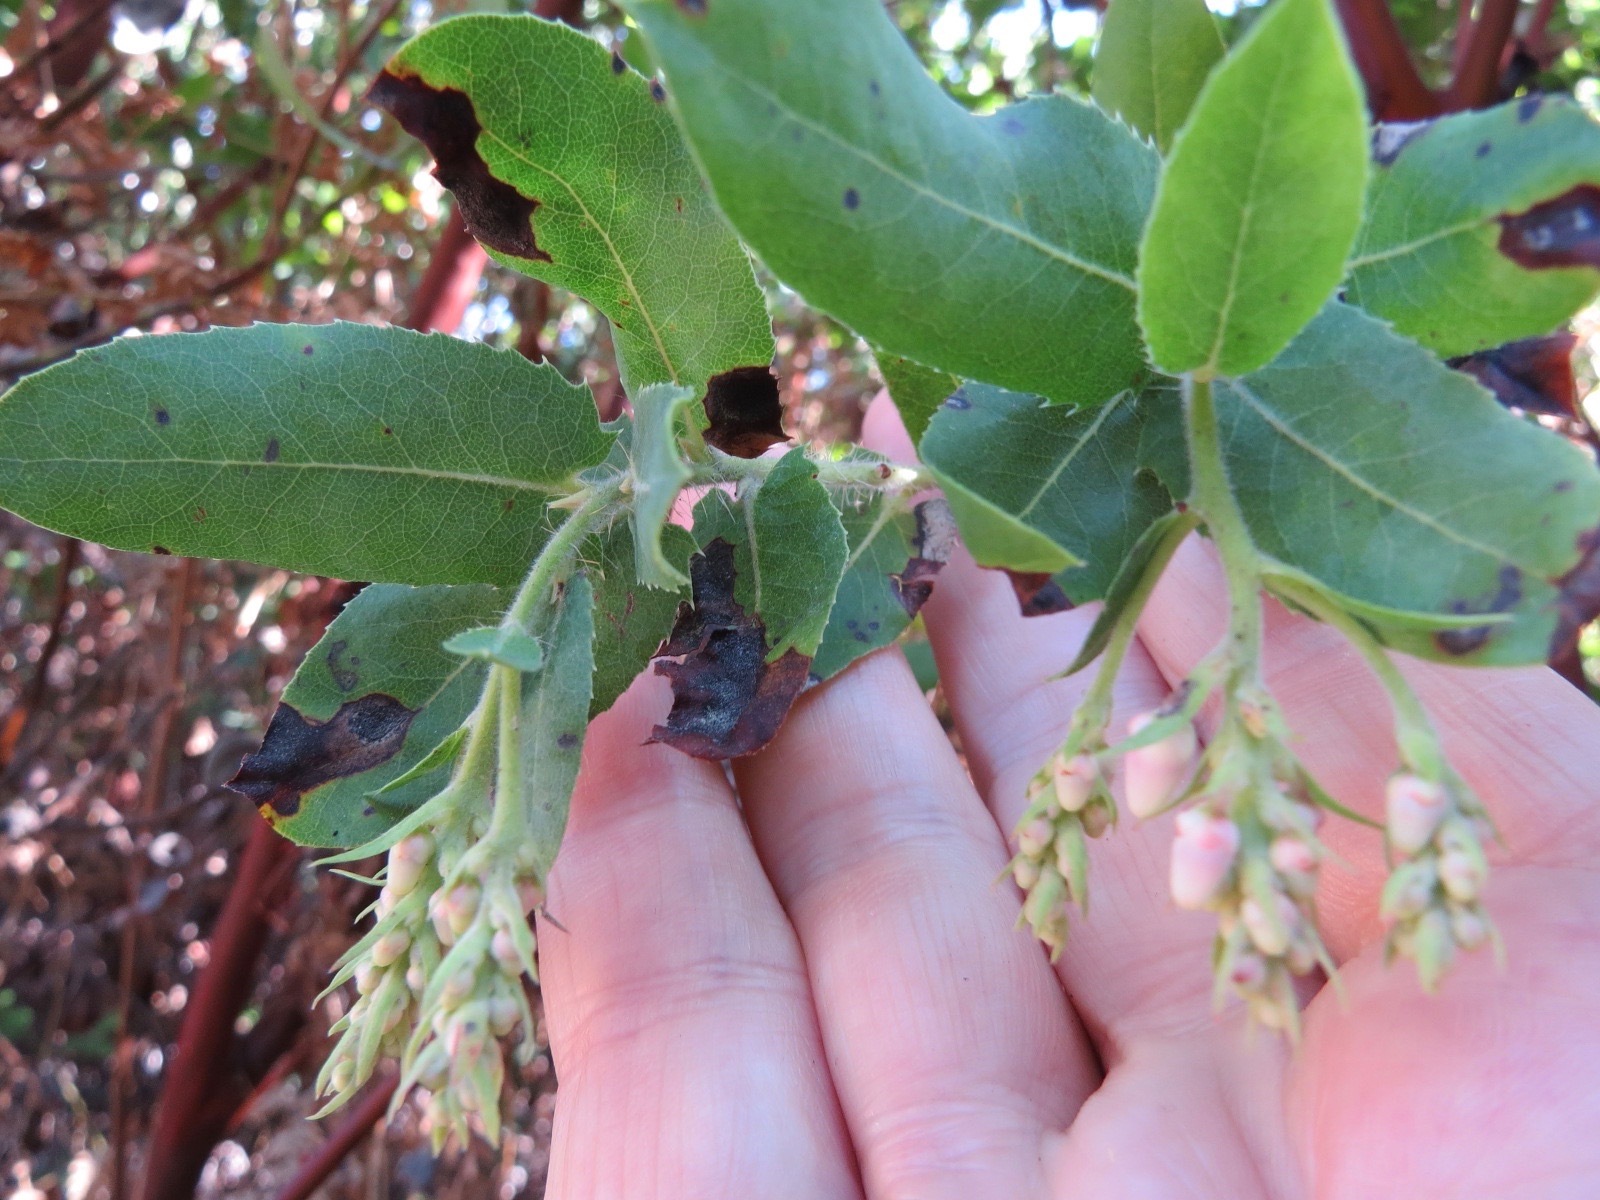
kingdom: Plantae
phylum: Tracheophyta
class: Magnoliopsida
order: Ericales
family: Ericaceae
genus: Arctostaphylos
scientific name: Arctostaphylos andersonii
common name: Santa cruz manzanita
